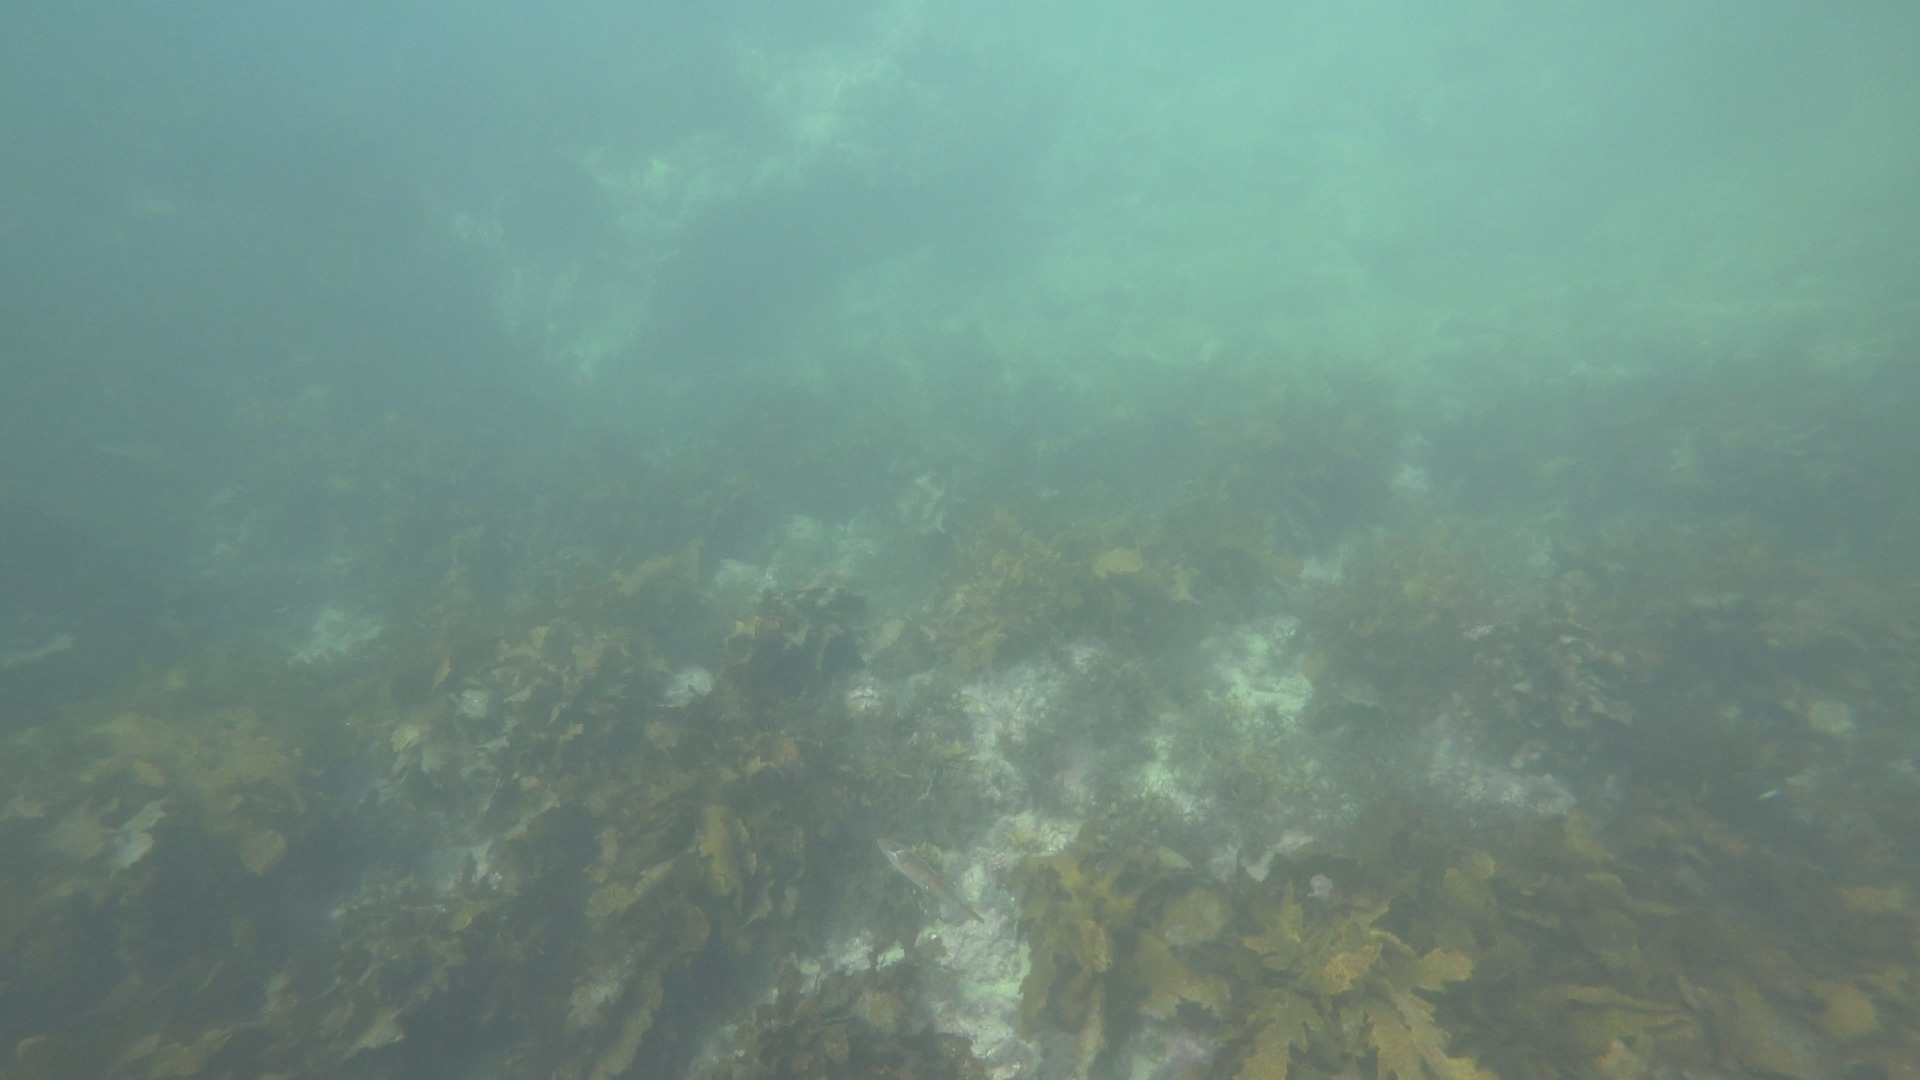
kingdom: Animalia
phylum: Mollusca
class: Cephalopoda
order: Myopsida
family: Loliginidae
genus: Sepioteuthis
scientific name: Sepioteuthis australis
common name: Southern reef squid
